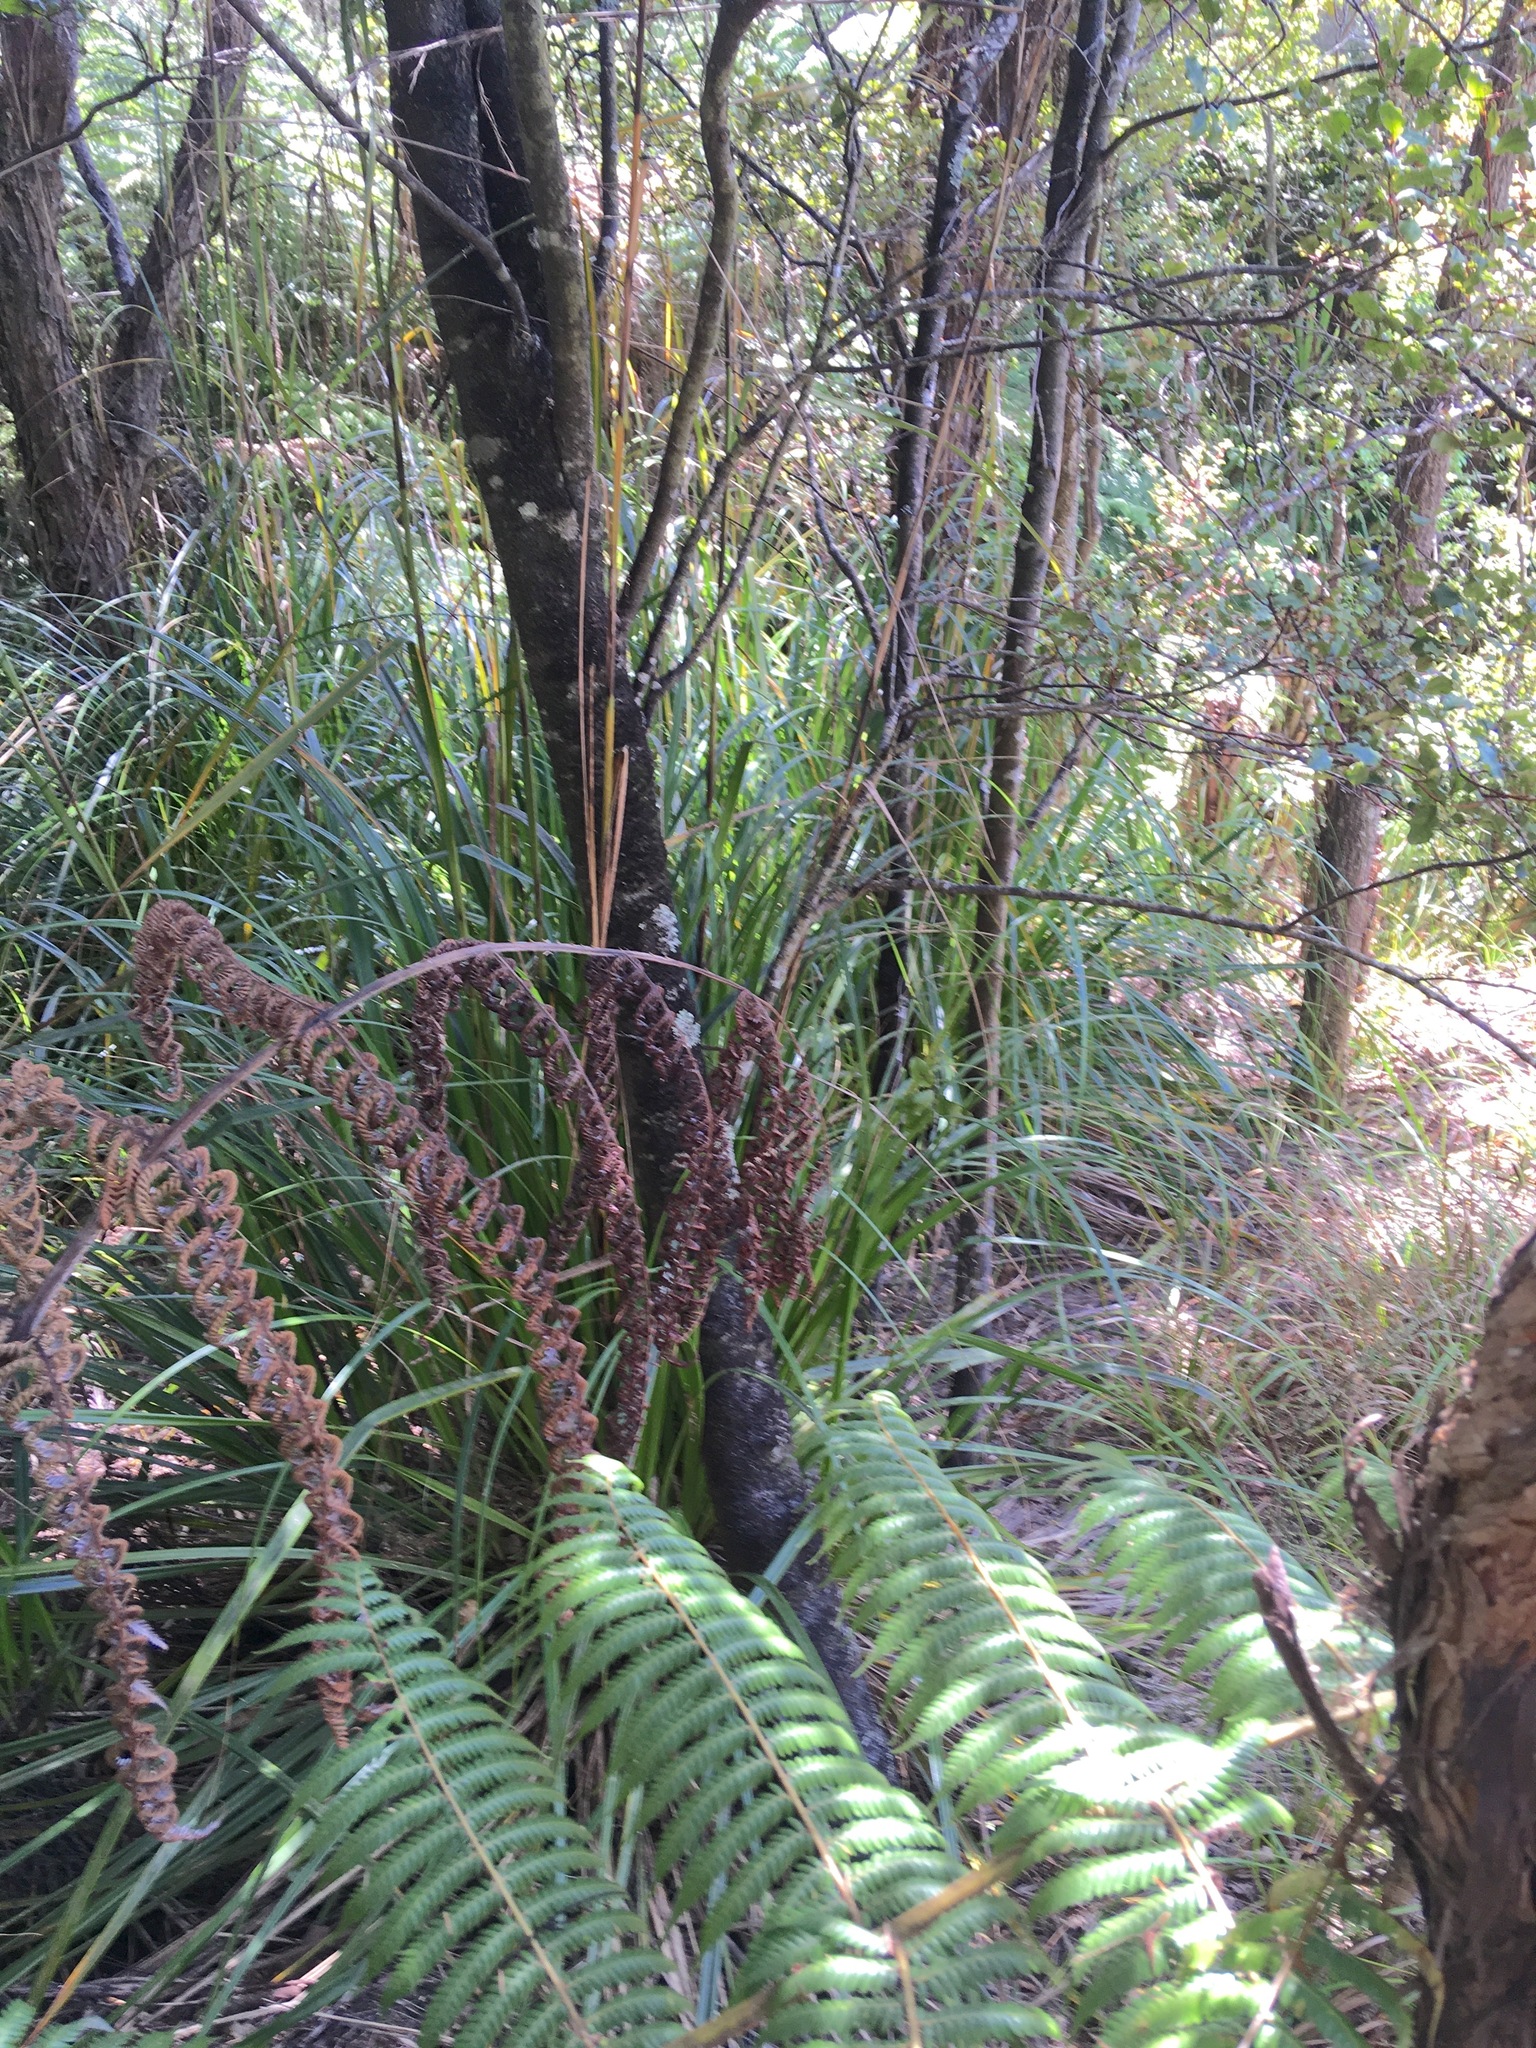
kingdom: Plantae
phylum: Tracheophyta
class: Magnoliopsida
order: Ericales
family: Primulaceae
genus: Myrsine
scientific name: Myrsine australis
